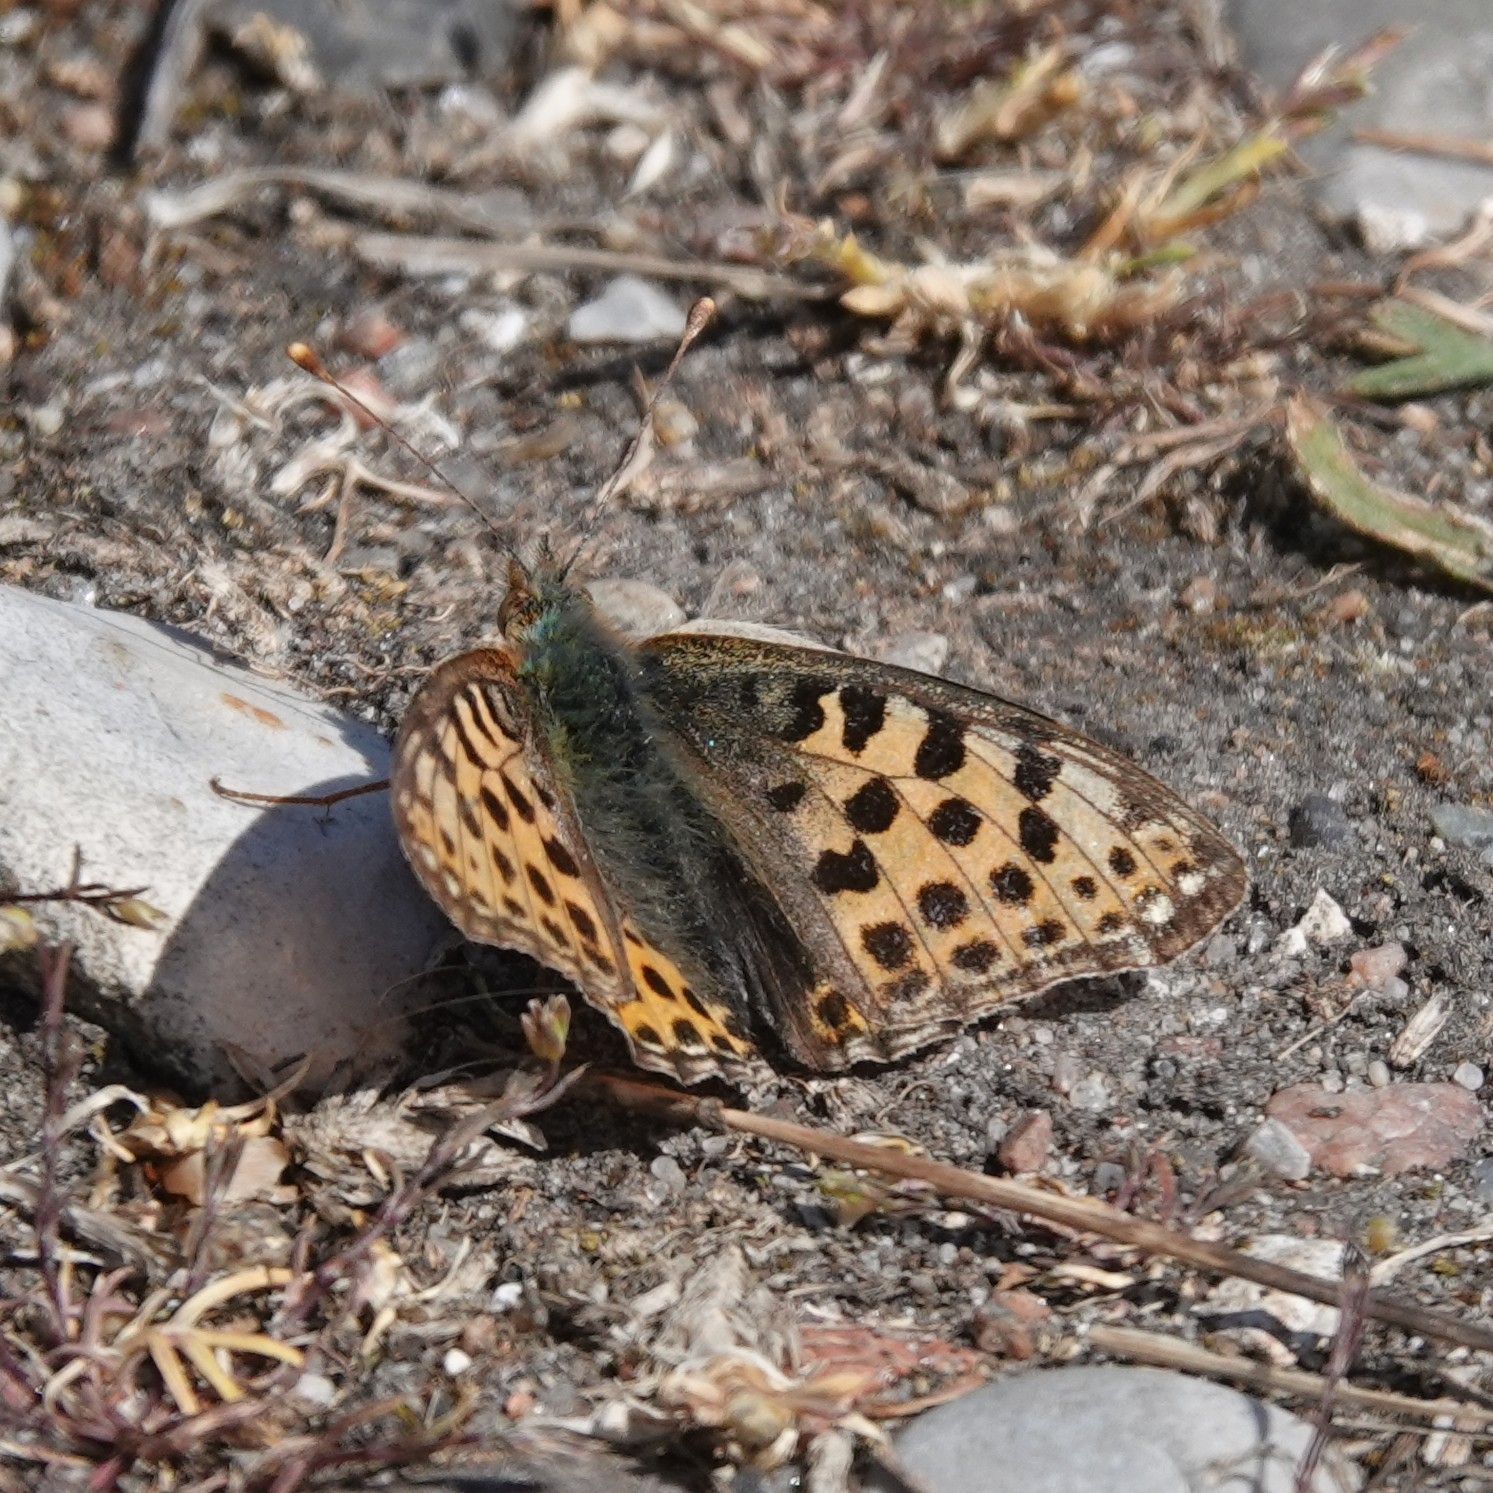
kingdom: Animalia
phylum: Arthropoda
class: Insecta
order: Lepidoptera
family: Nymphalidae
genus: Issoria
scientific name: Issoria lathonia
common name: Queen of spain fritillary
